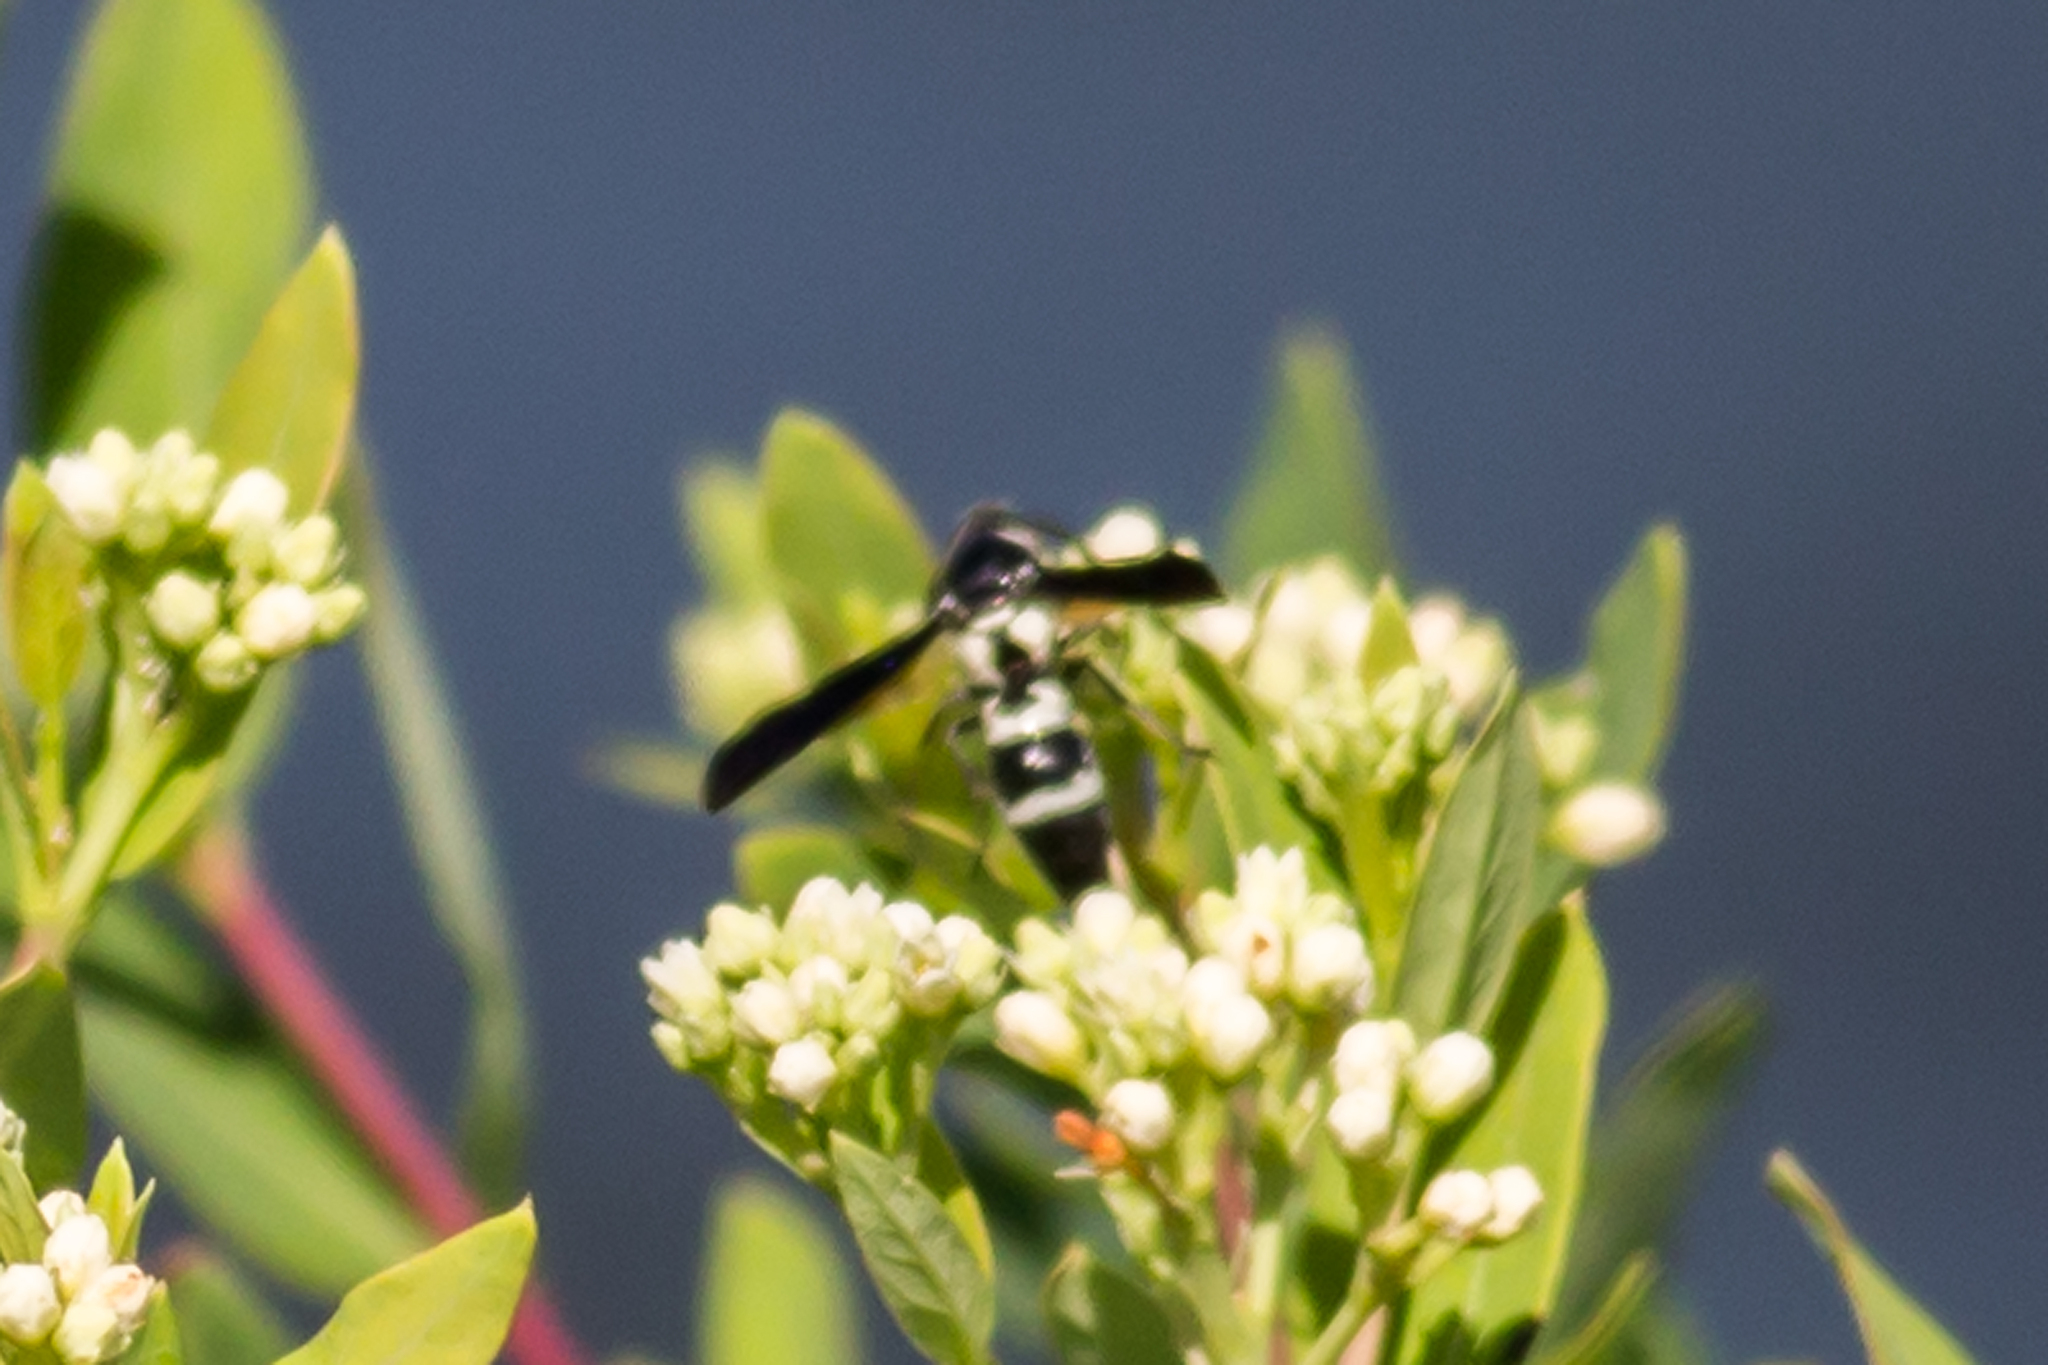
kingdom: Animalia
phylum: Arthropoda
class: Insecta
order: Hymenoptera
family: Eumenidae
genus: Pseudodynerus
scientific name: Pseudodynerus quadrisectus
